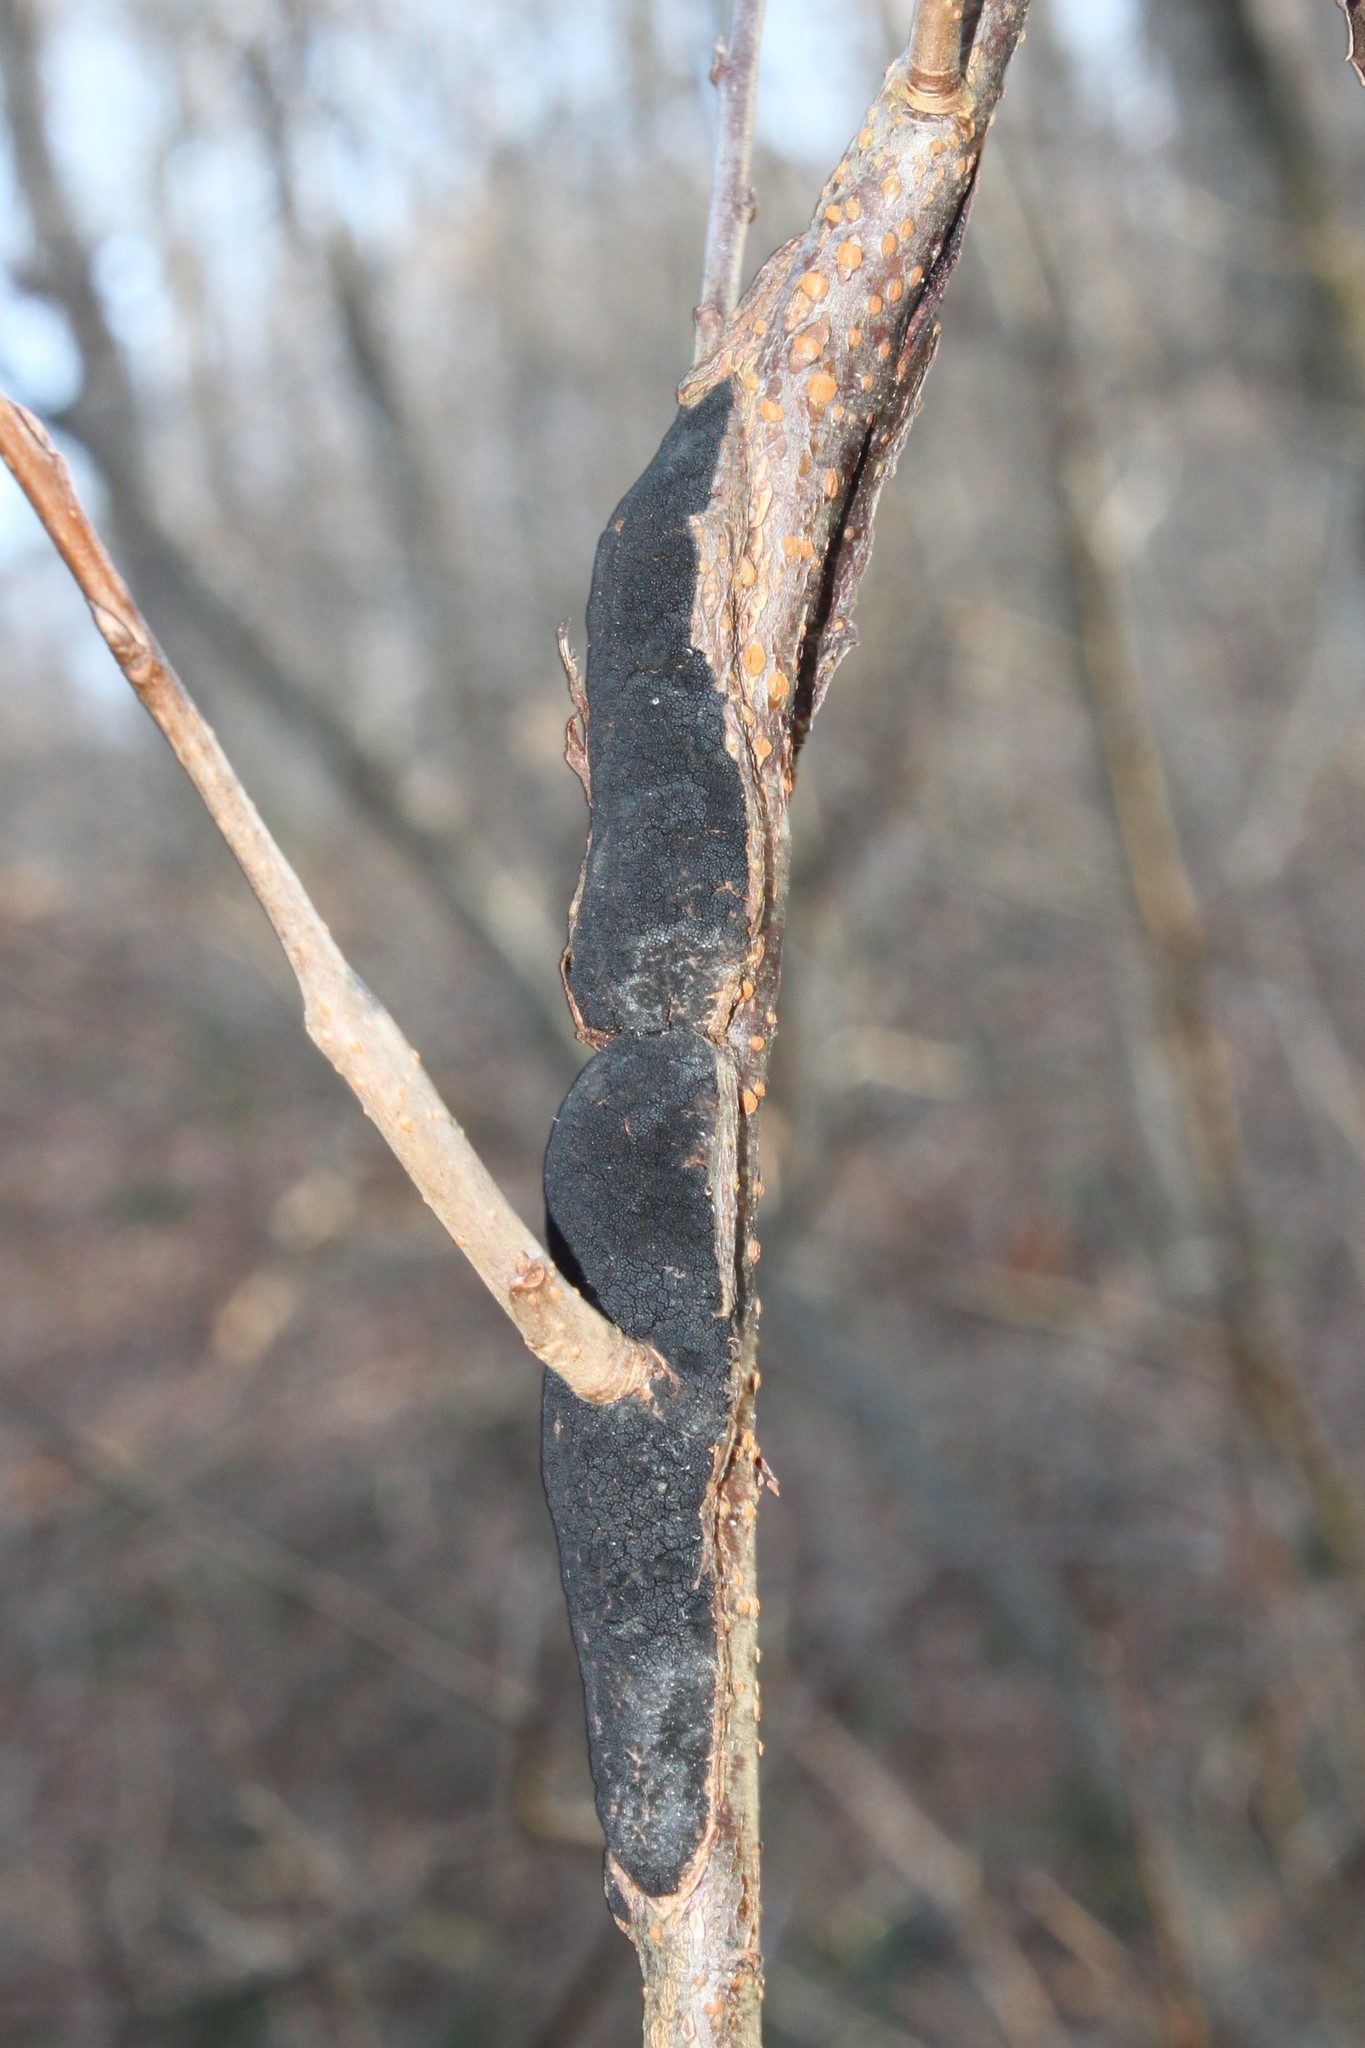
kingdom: Fungi
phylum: Ascomycota
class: Dothideomycetes
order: Venturiales
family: Venturiaceae
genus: Apiosporina
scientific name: Apiosporina morbosa
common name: Black knot
